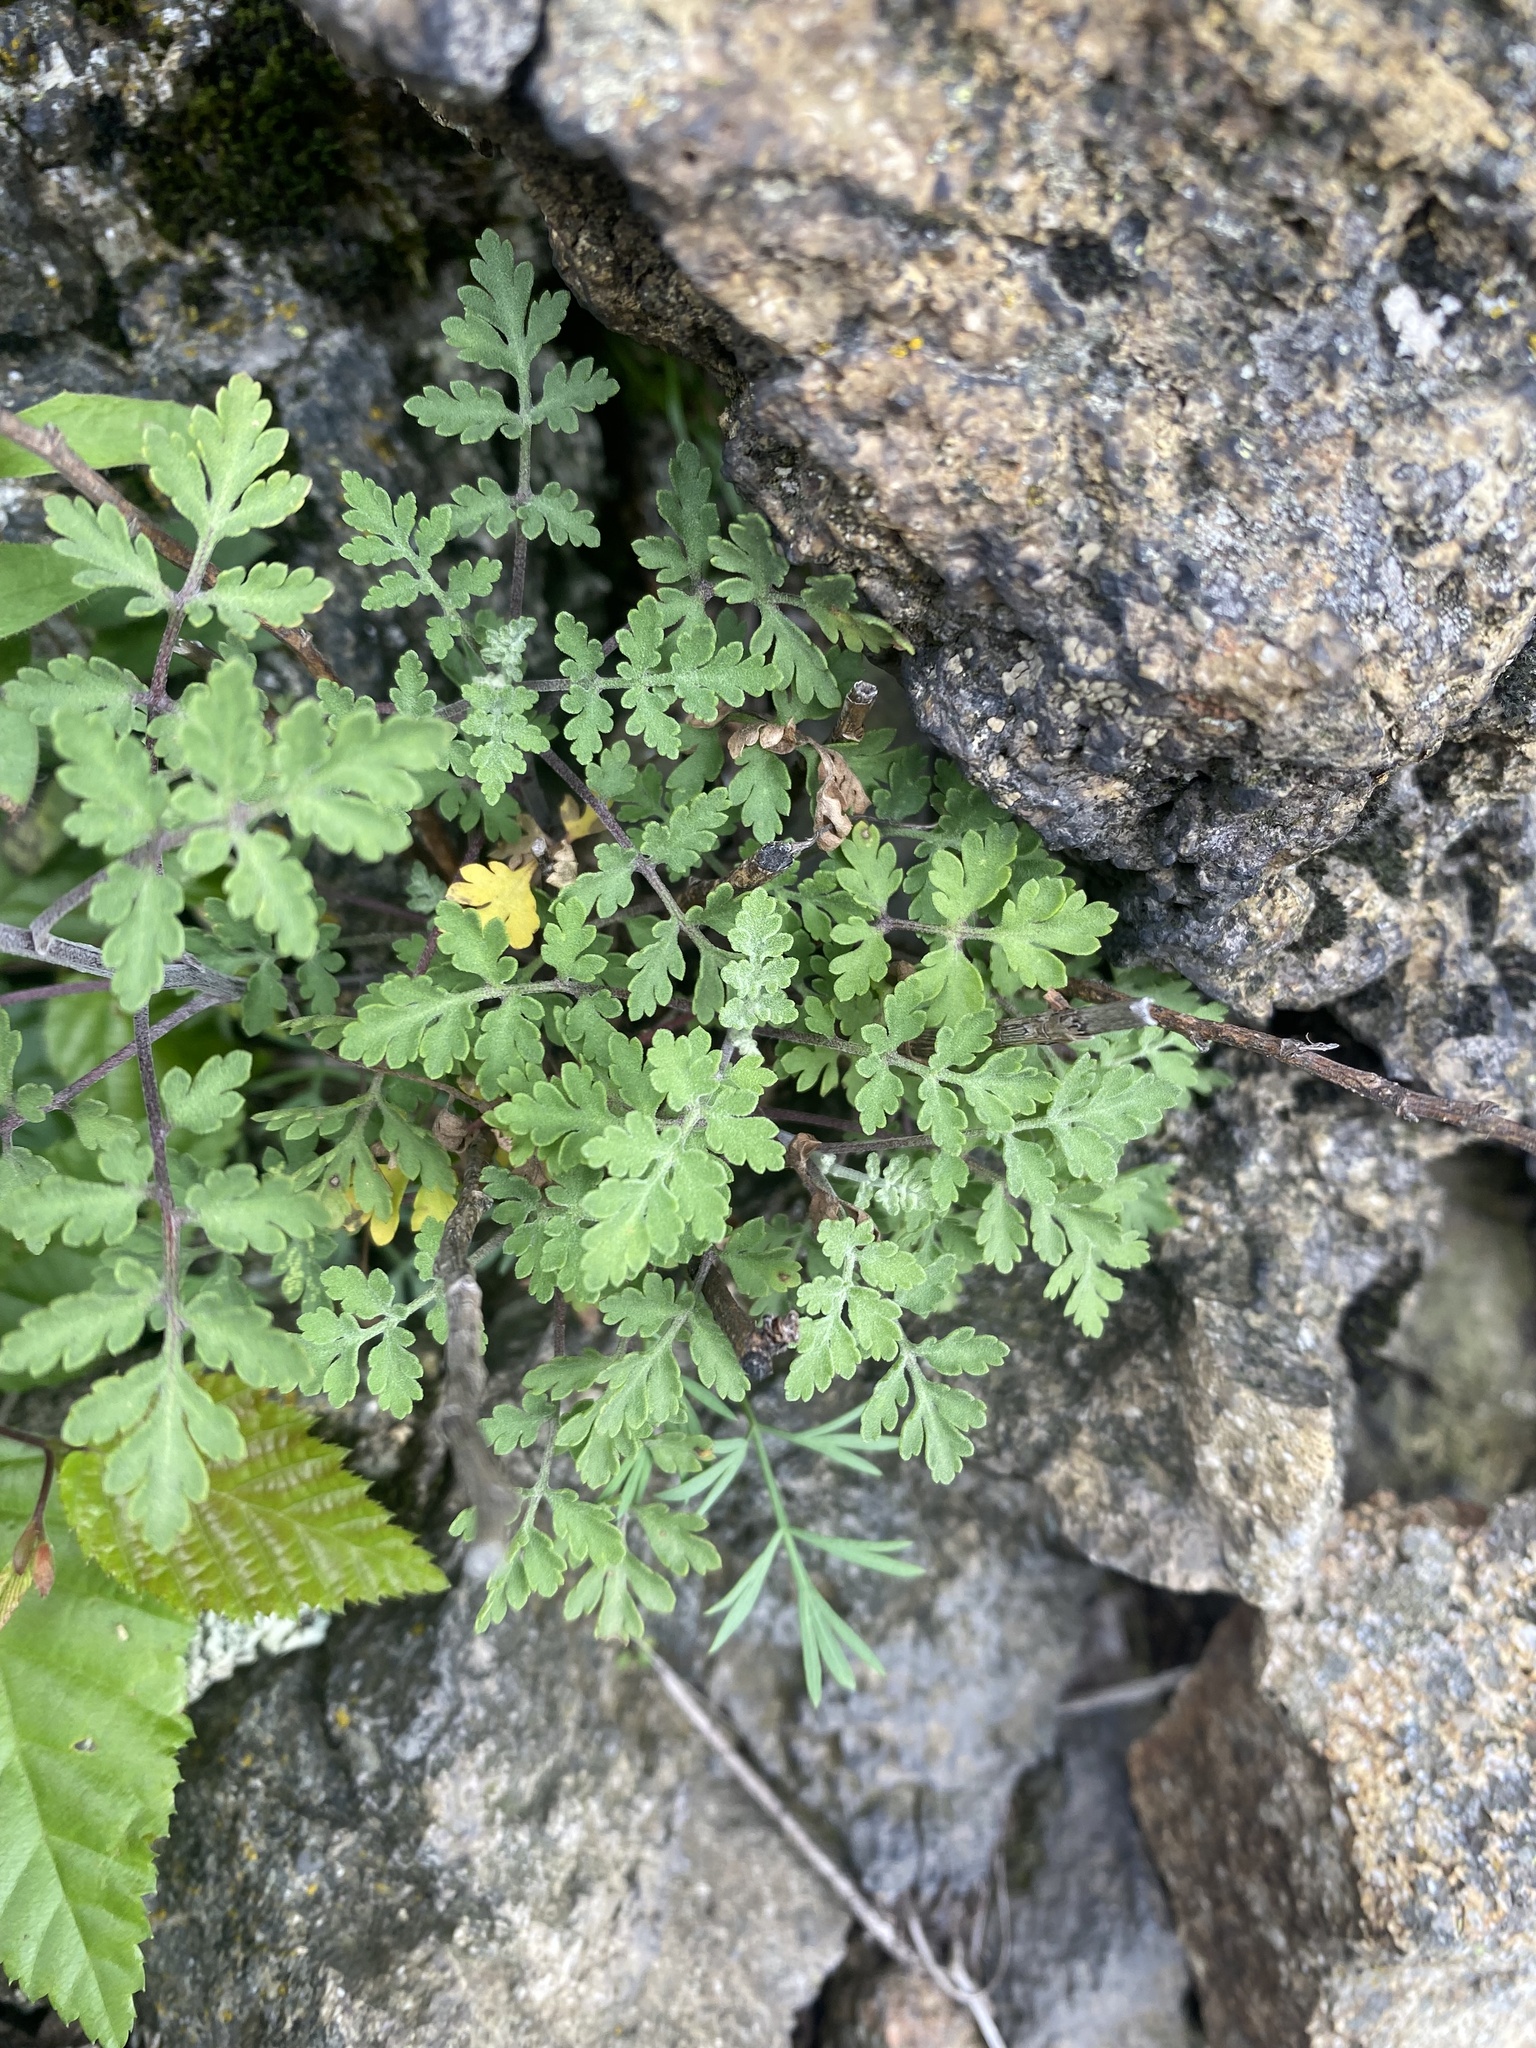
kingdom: Plantae
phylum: Tracheophyta
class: Magnoliopsida
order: Asterales
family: Asteraceae
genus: Tanacetum
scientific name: Tanacetum partheniifolium
